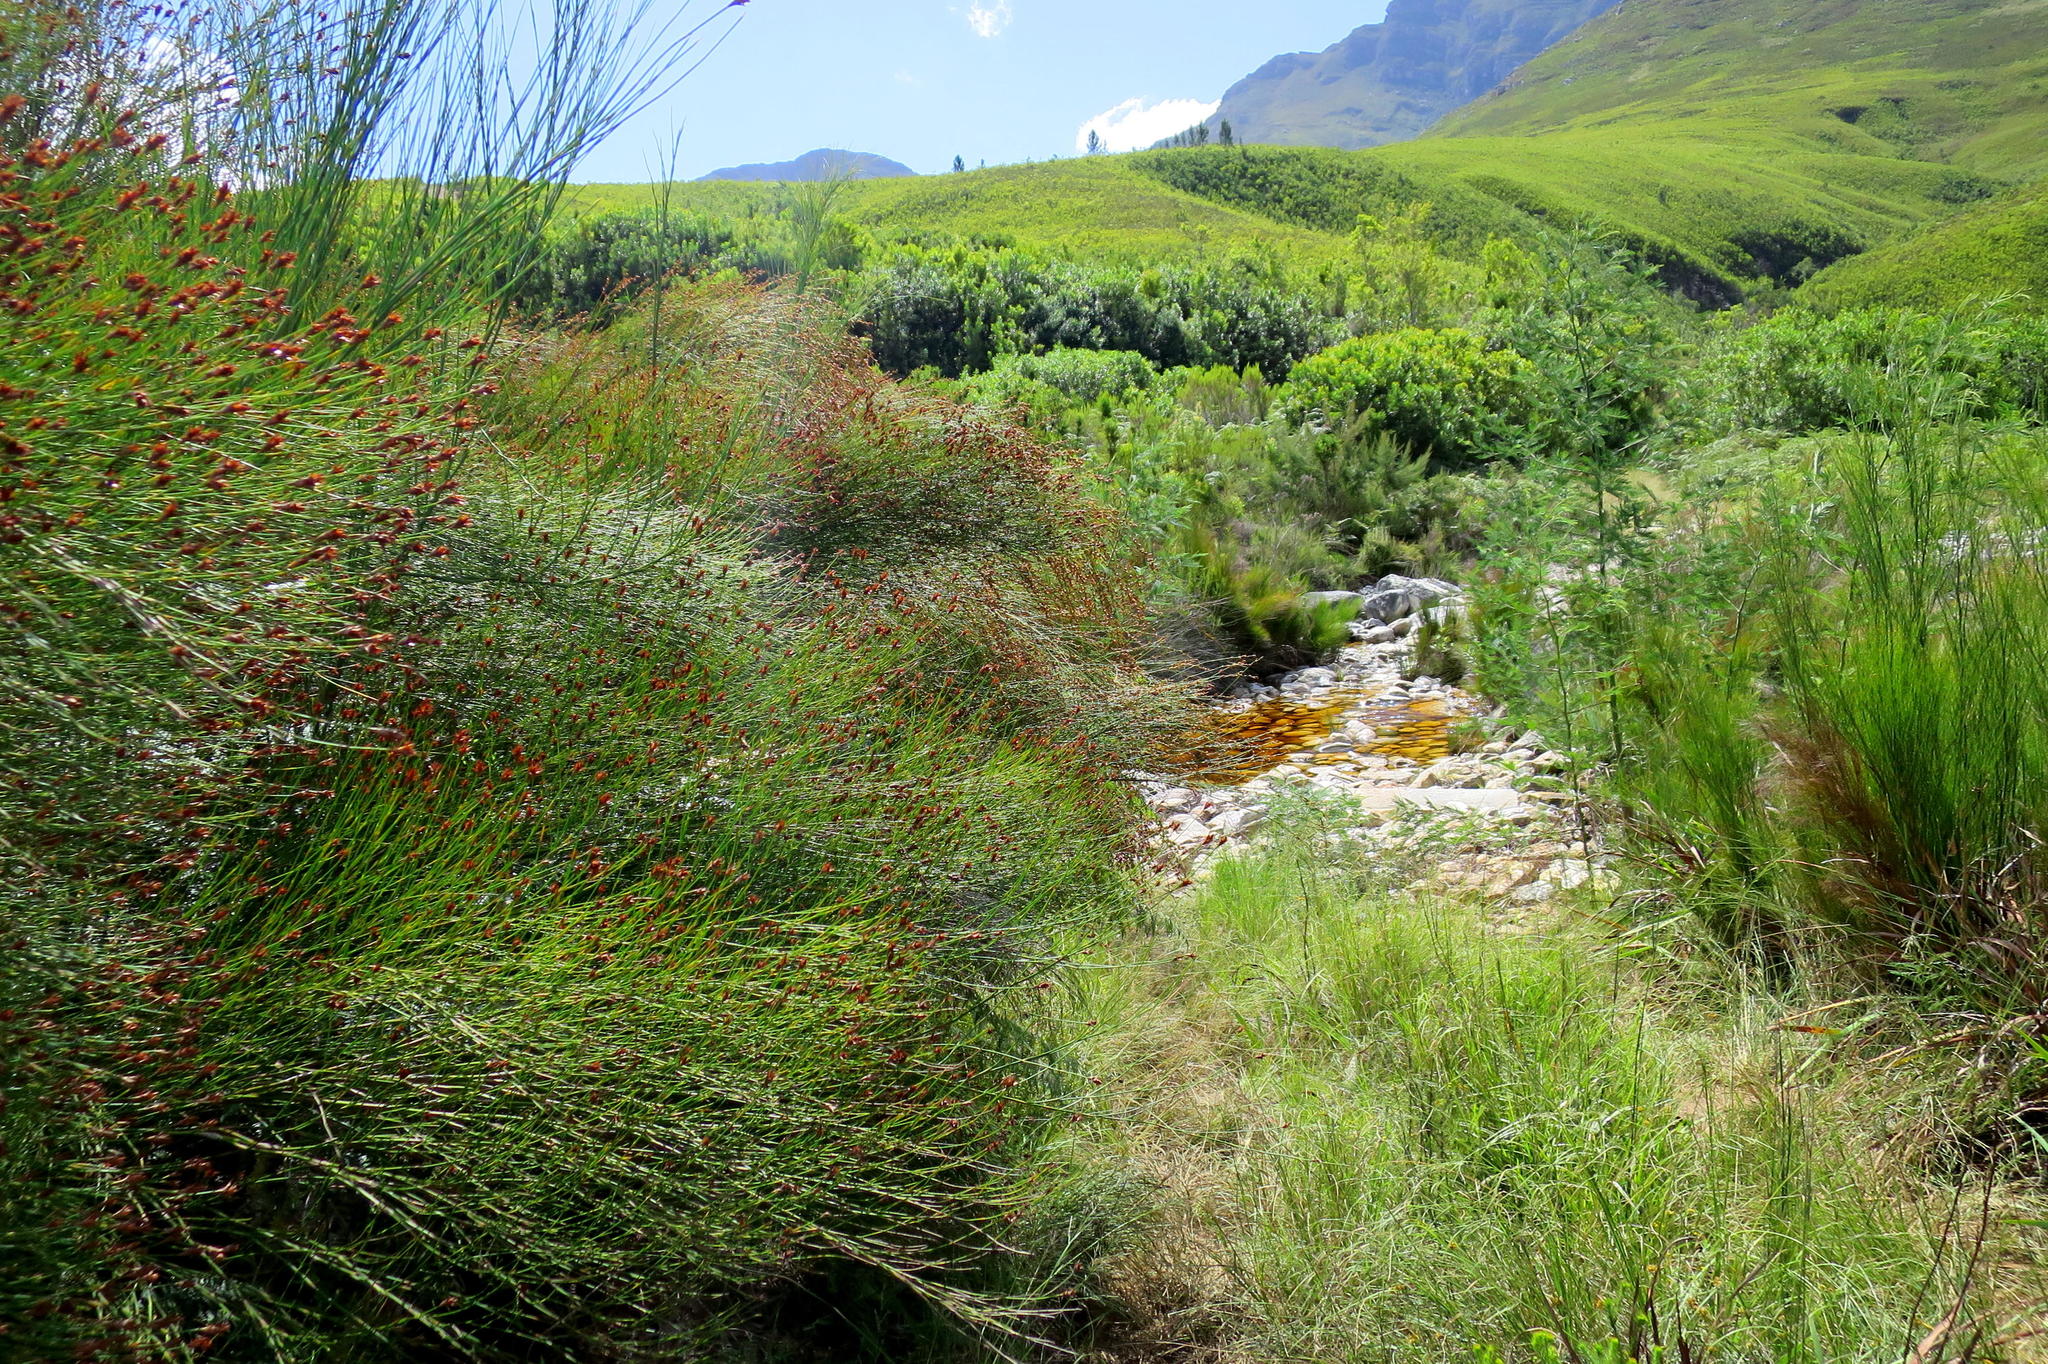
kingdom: Plantae
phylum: Tracheophyta
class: Liliopsida
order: Poales
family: Restionaceae
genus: Platycaulos
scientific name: Platycaulos callistachyus
